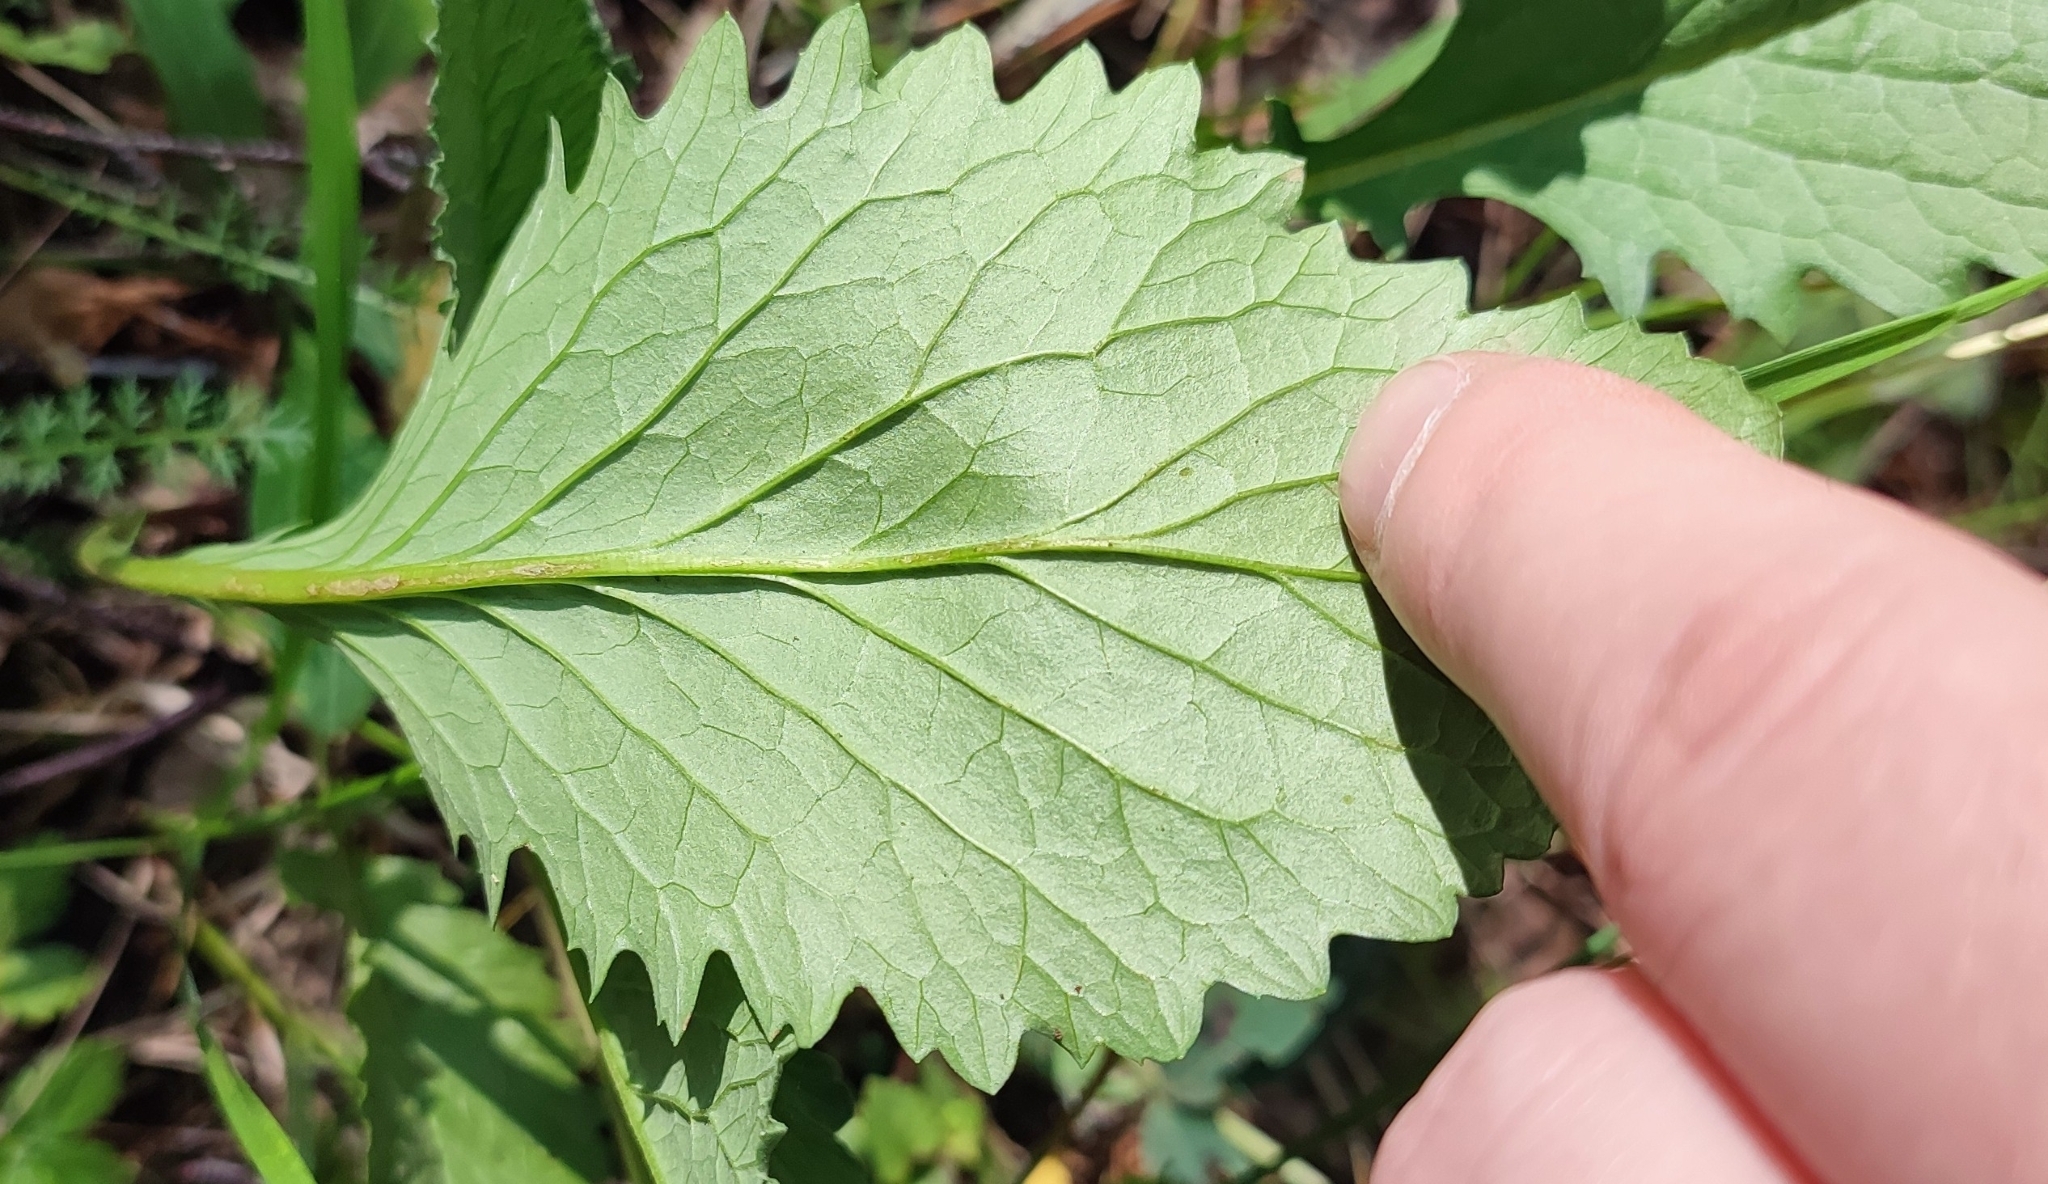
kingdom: Plantae
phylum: Tracheophyta
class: Magnoliopsida
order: Asterales
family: Asteraceae
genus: Jacobaea
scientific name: Jacobaea vulgaris
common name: Stinking willie
